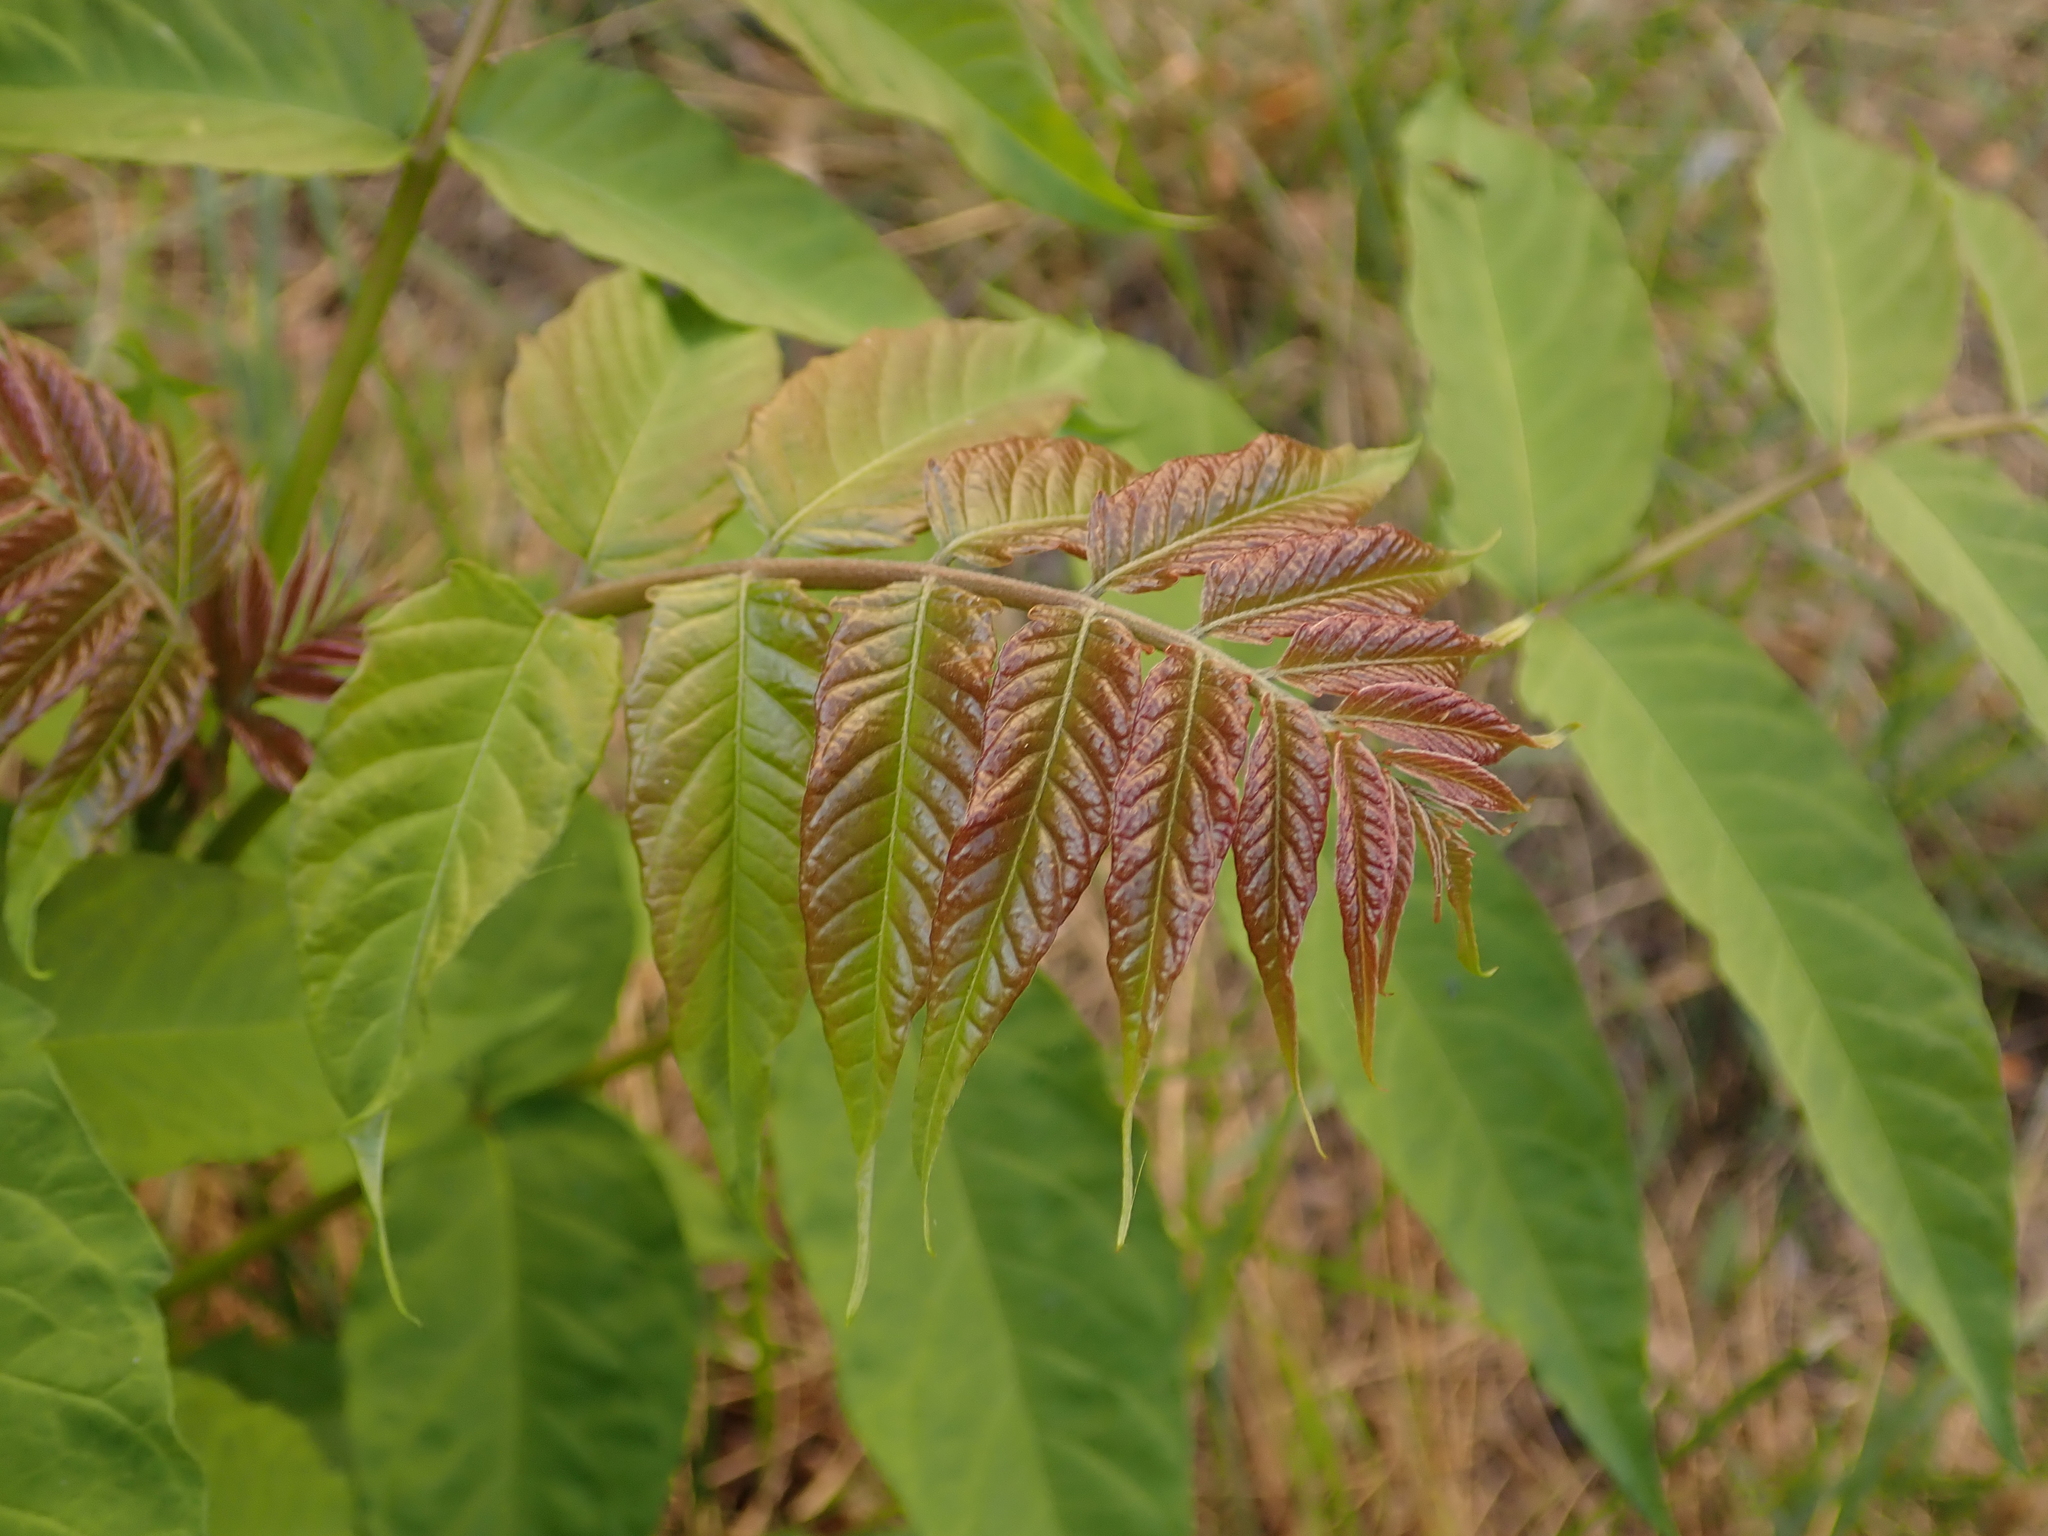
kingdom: Plantae
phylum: Tracheophyta
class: Magnoliopsida
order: Sapindales
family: Simaroubaceae
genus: Ailanthus
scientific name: Ailanthus altissima
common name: Tree-of-heaven
